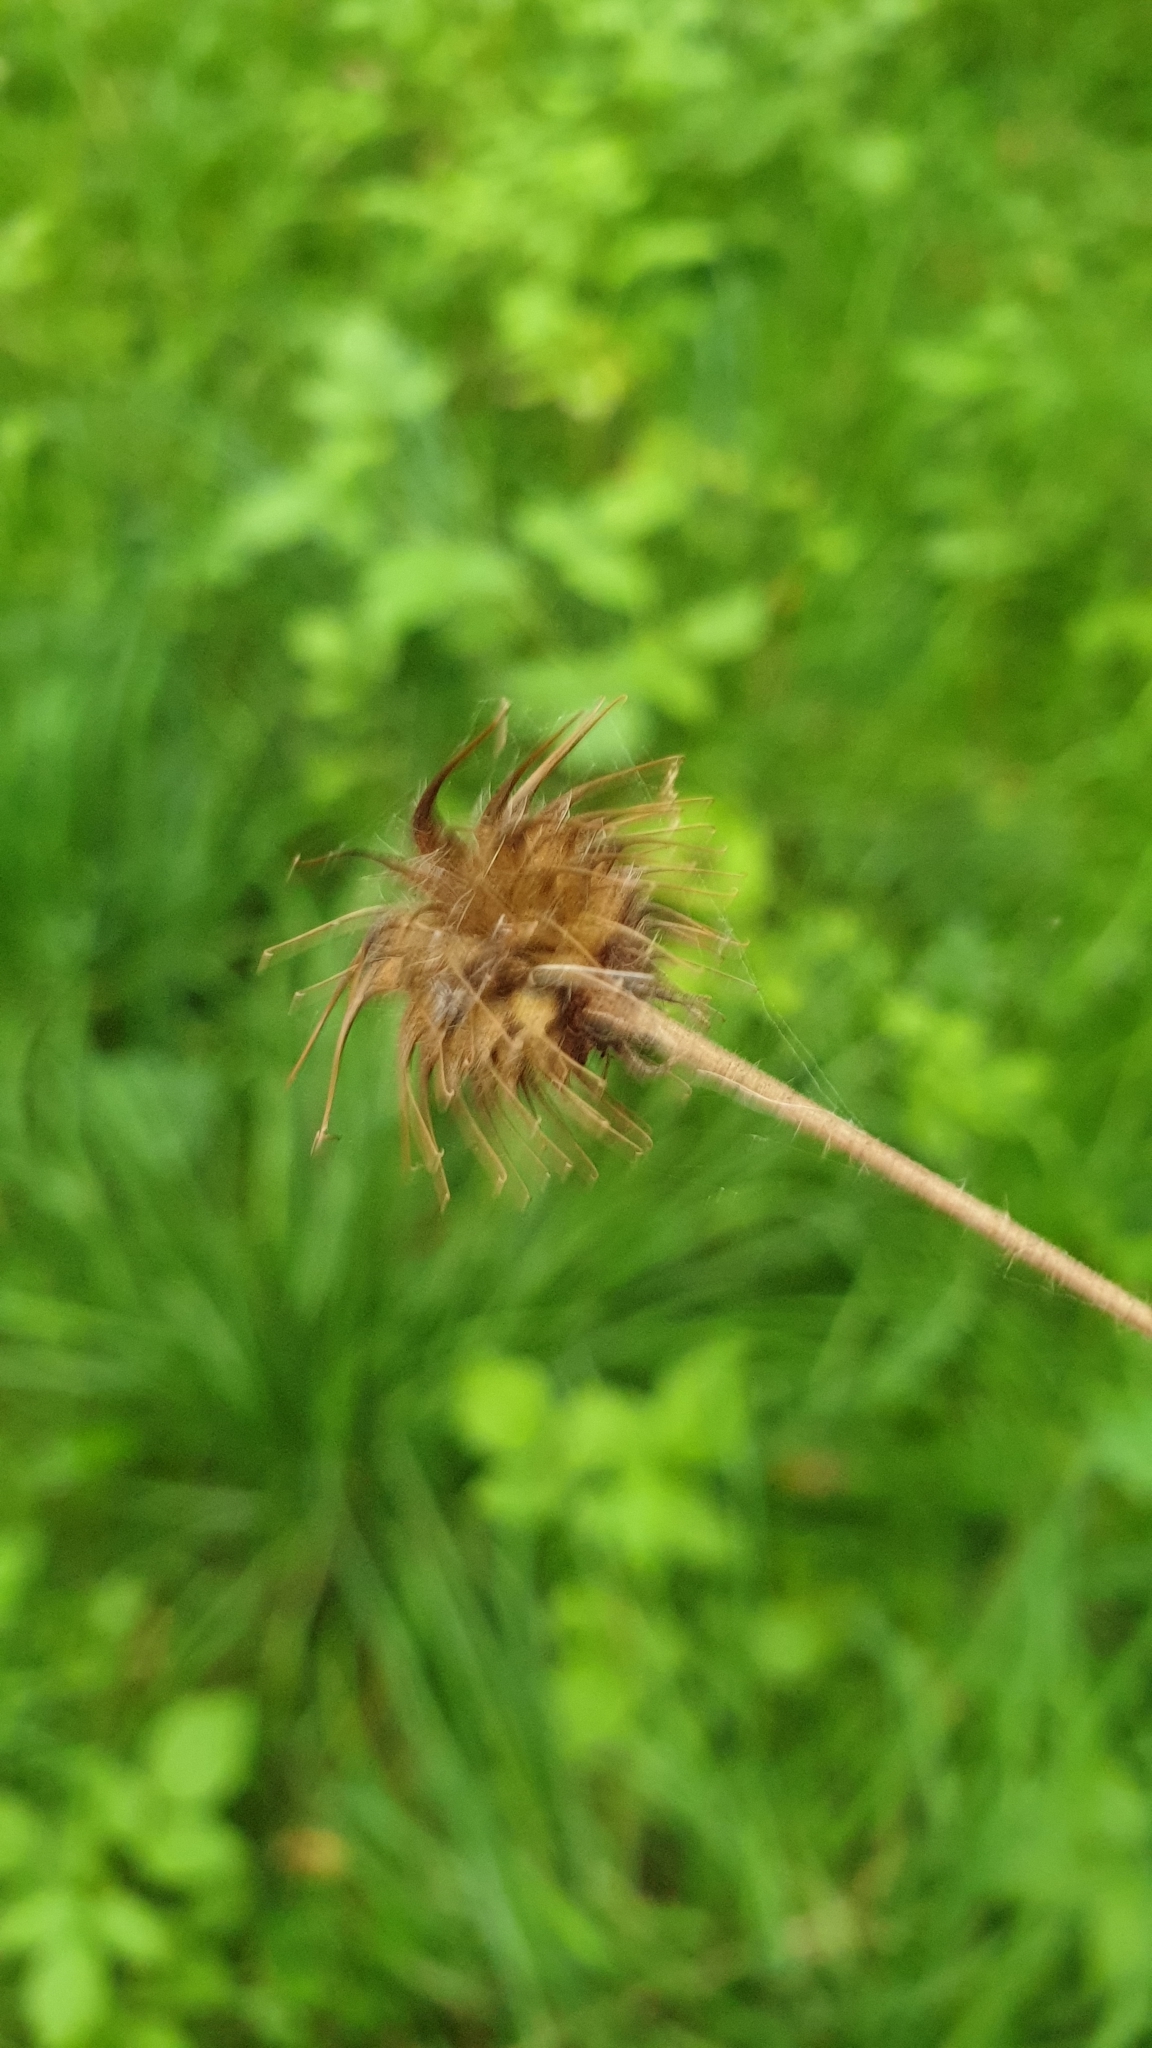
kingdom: Plantae
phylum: Tracheophyta
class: Magnoliopsida
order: Rosales
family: Rosaceae
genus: Geum
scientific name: Geum urbanum
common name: Wood avens
